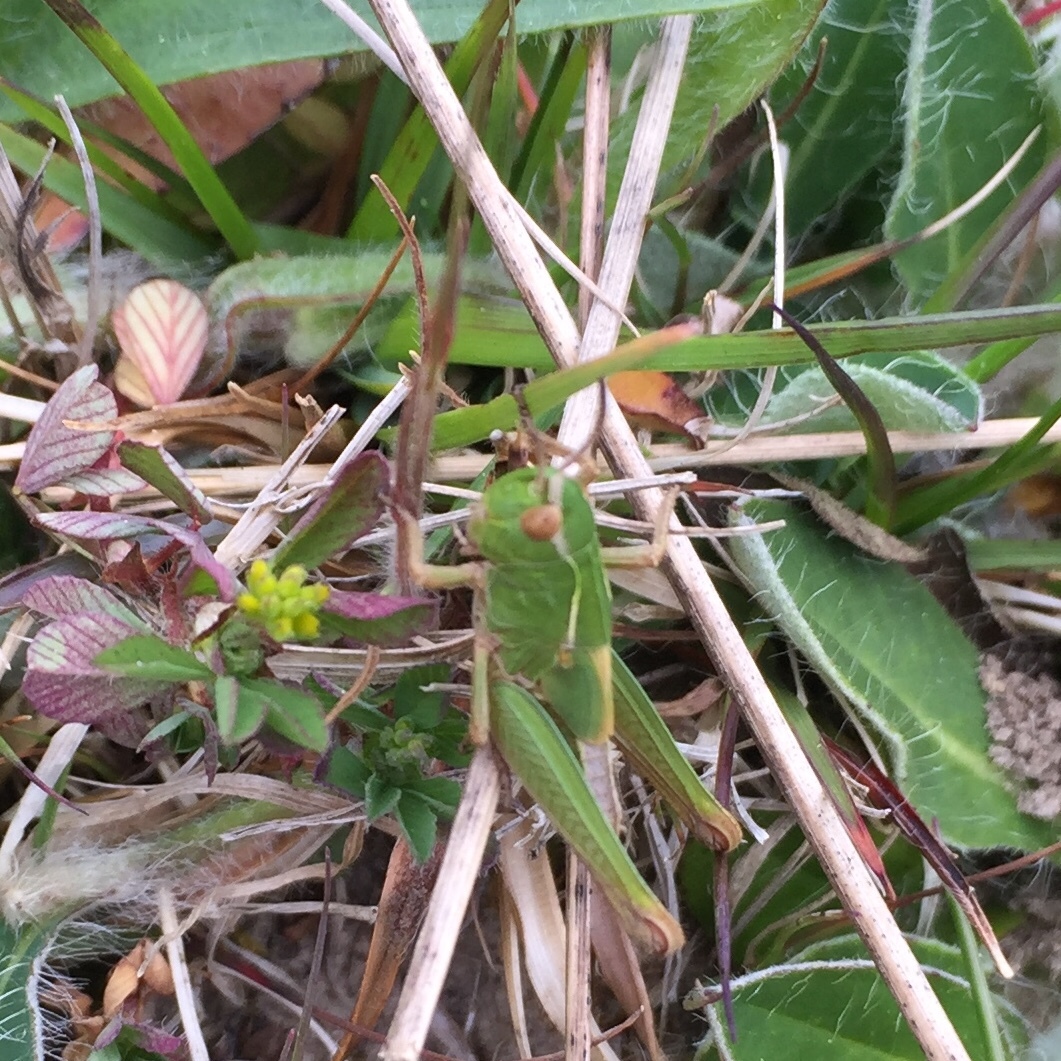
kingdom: Animalia
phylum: Arthropoda
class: Insecta
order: Orthoptera
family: Acrididae
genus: Omocestus
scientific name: Omocestus viridulus
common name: Common green grasshopper
